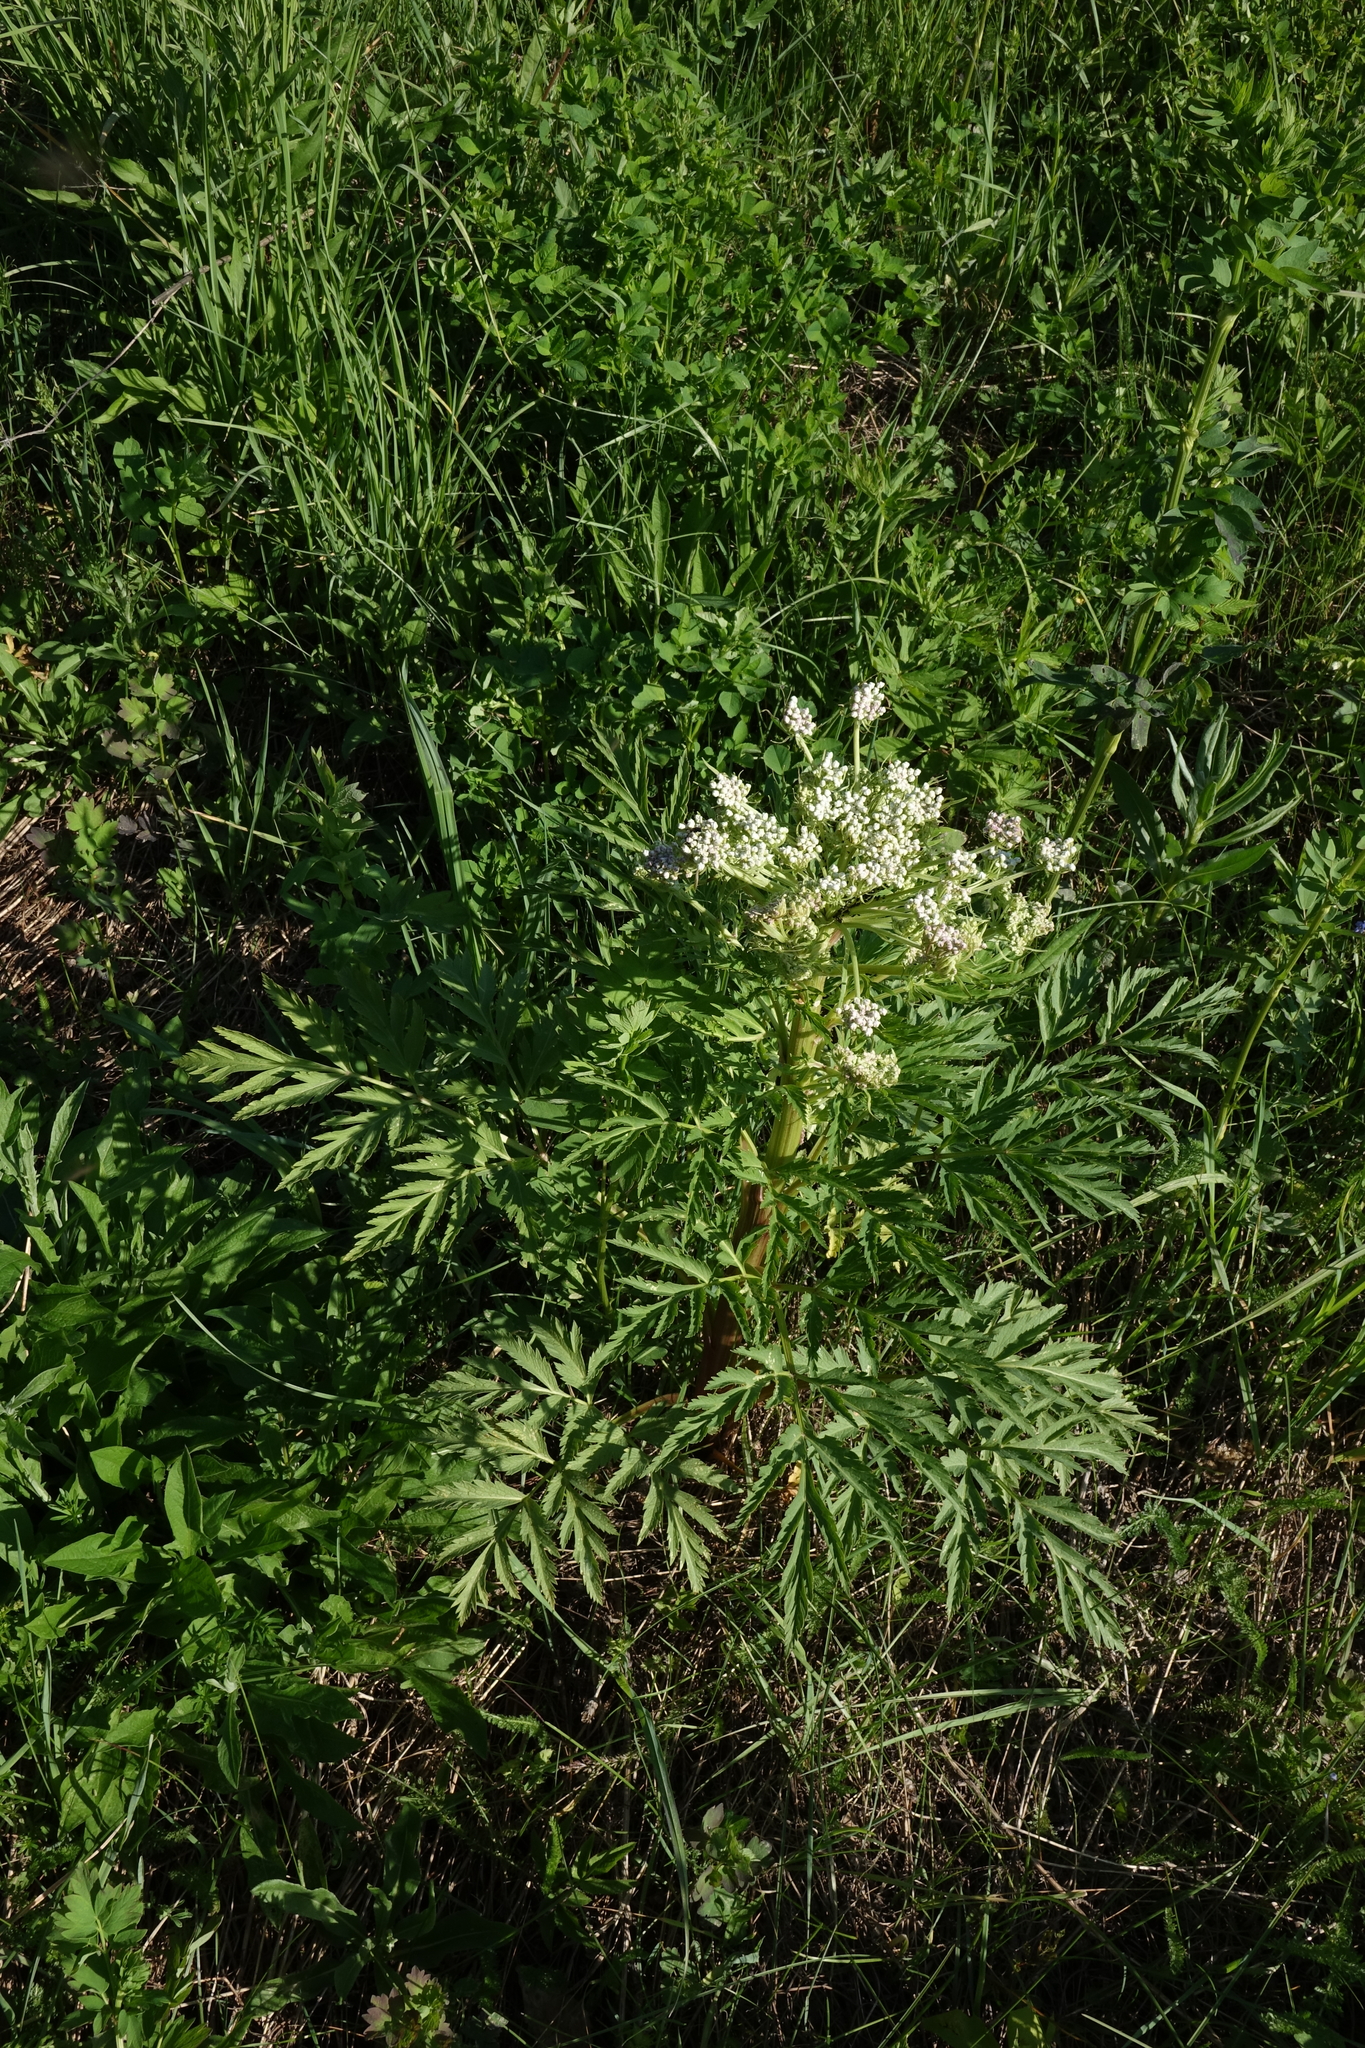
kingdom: Plantae
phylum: Tracheophyta
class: Magnoliopsida
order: Apiales
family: Apiaceae
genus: Pleurospermum
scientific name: Pleurospermum uralense
